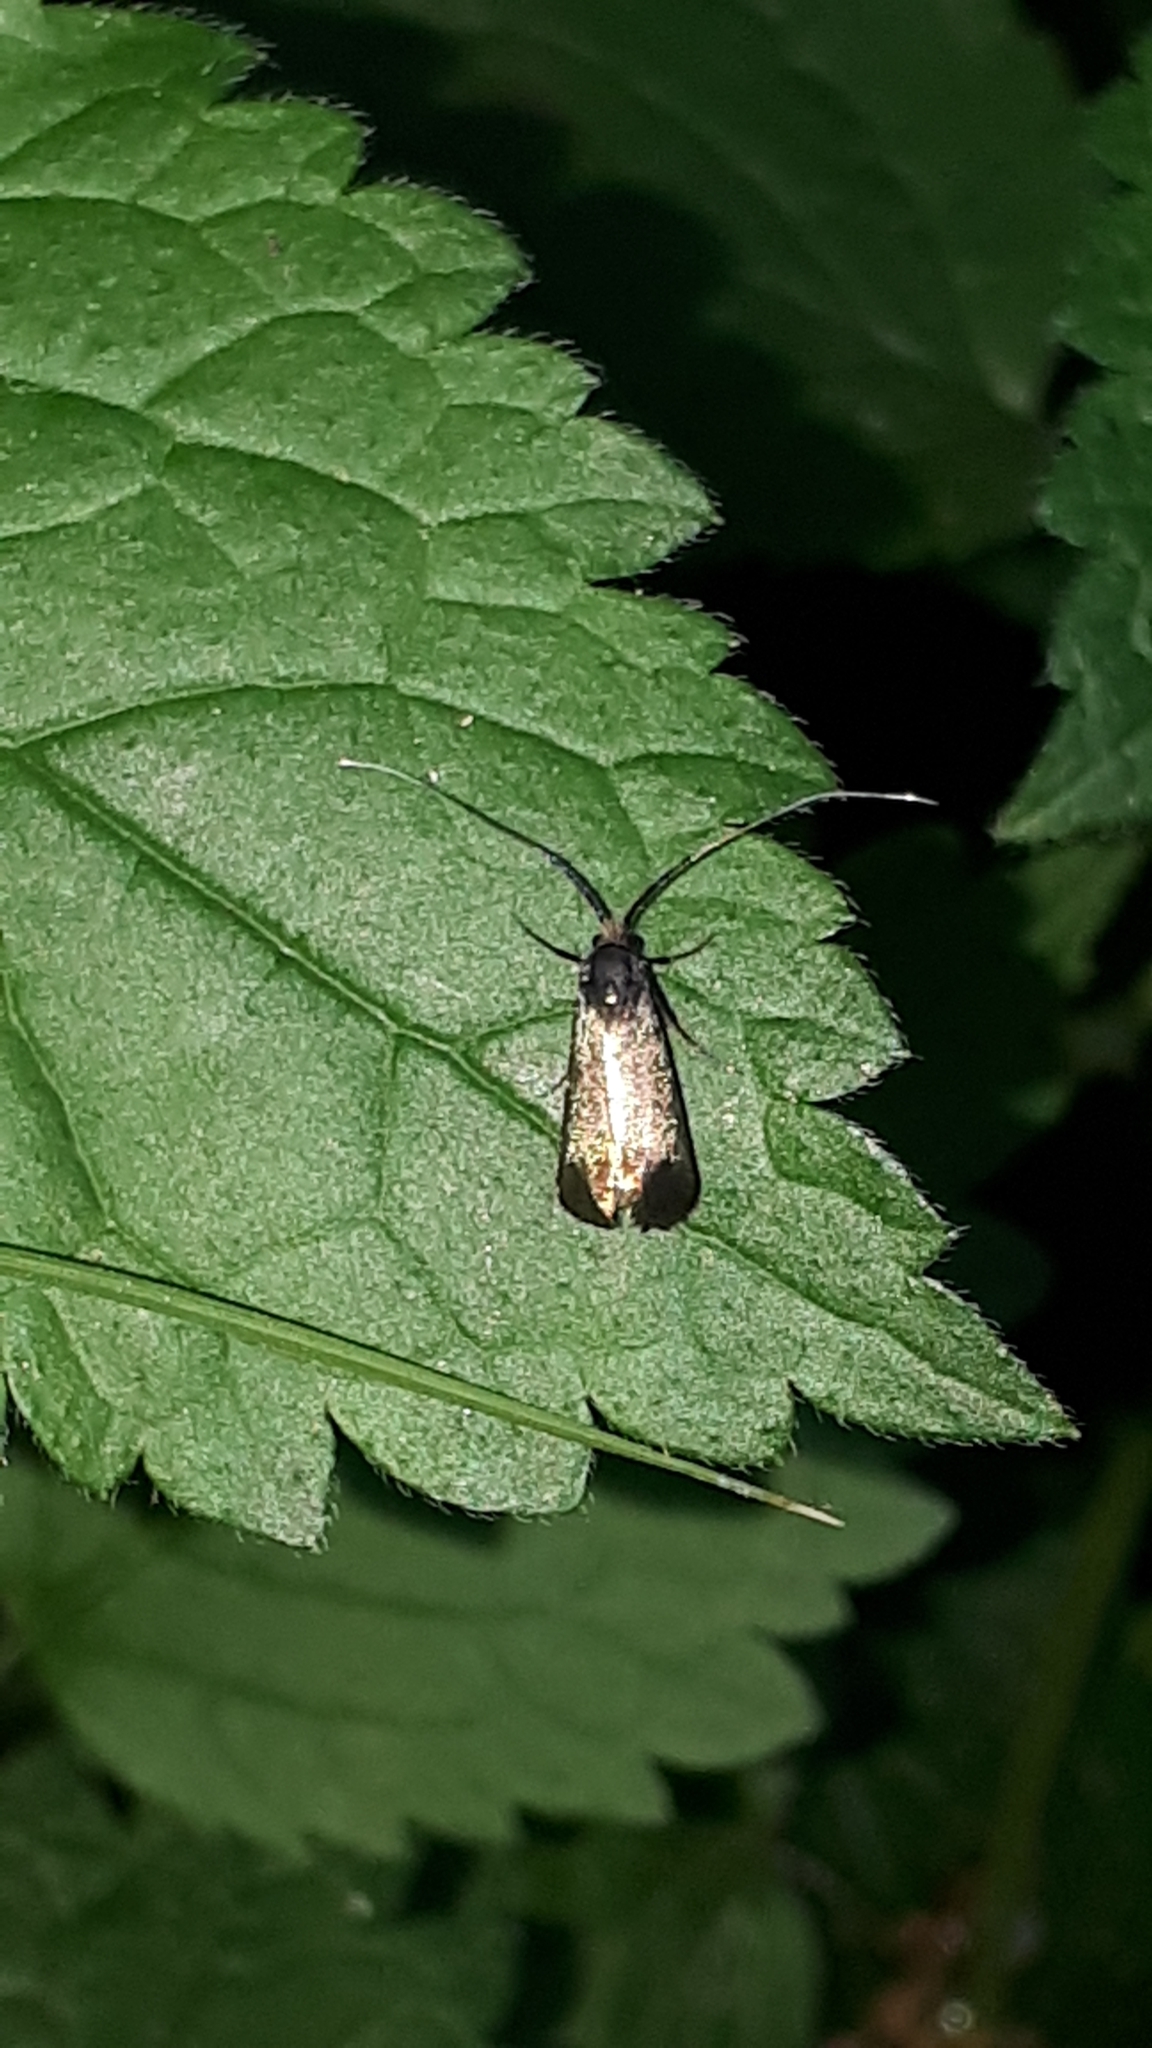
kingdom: Animalia
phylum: Arthropoda
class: Insecta
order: Lepidoptera
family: Adelidae
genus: Adela
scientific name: Adela viridella
